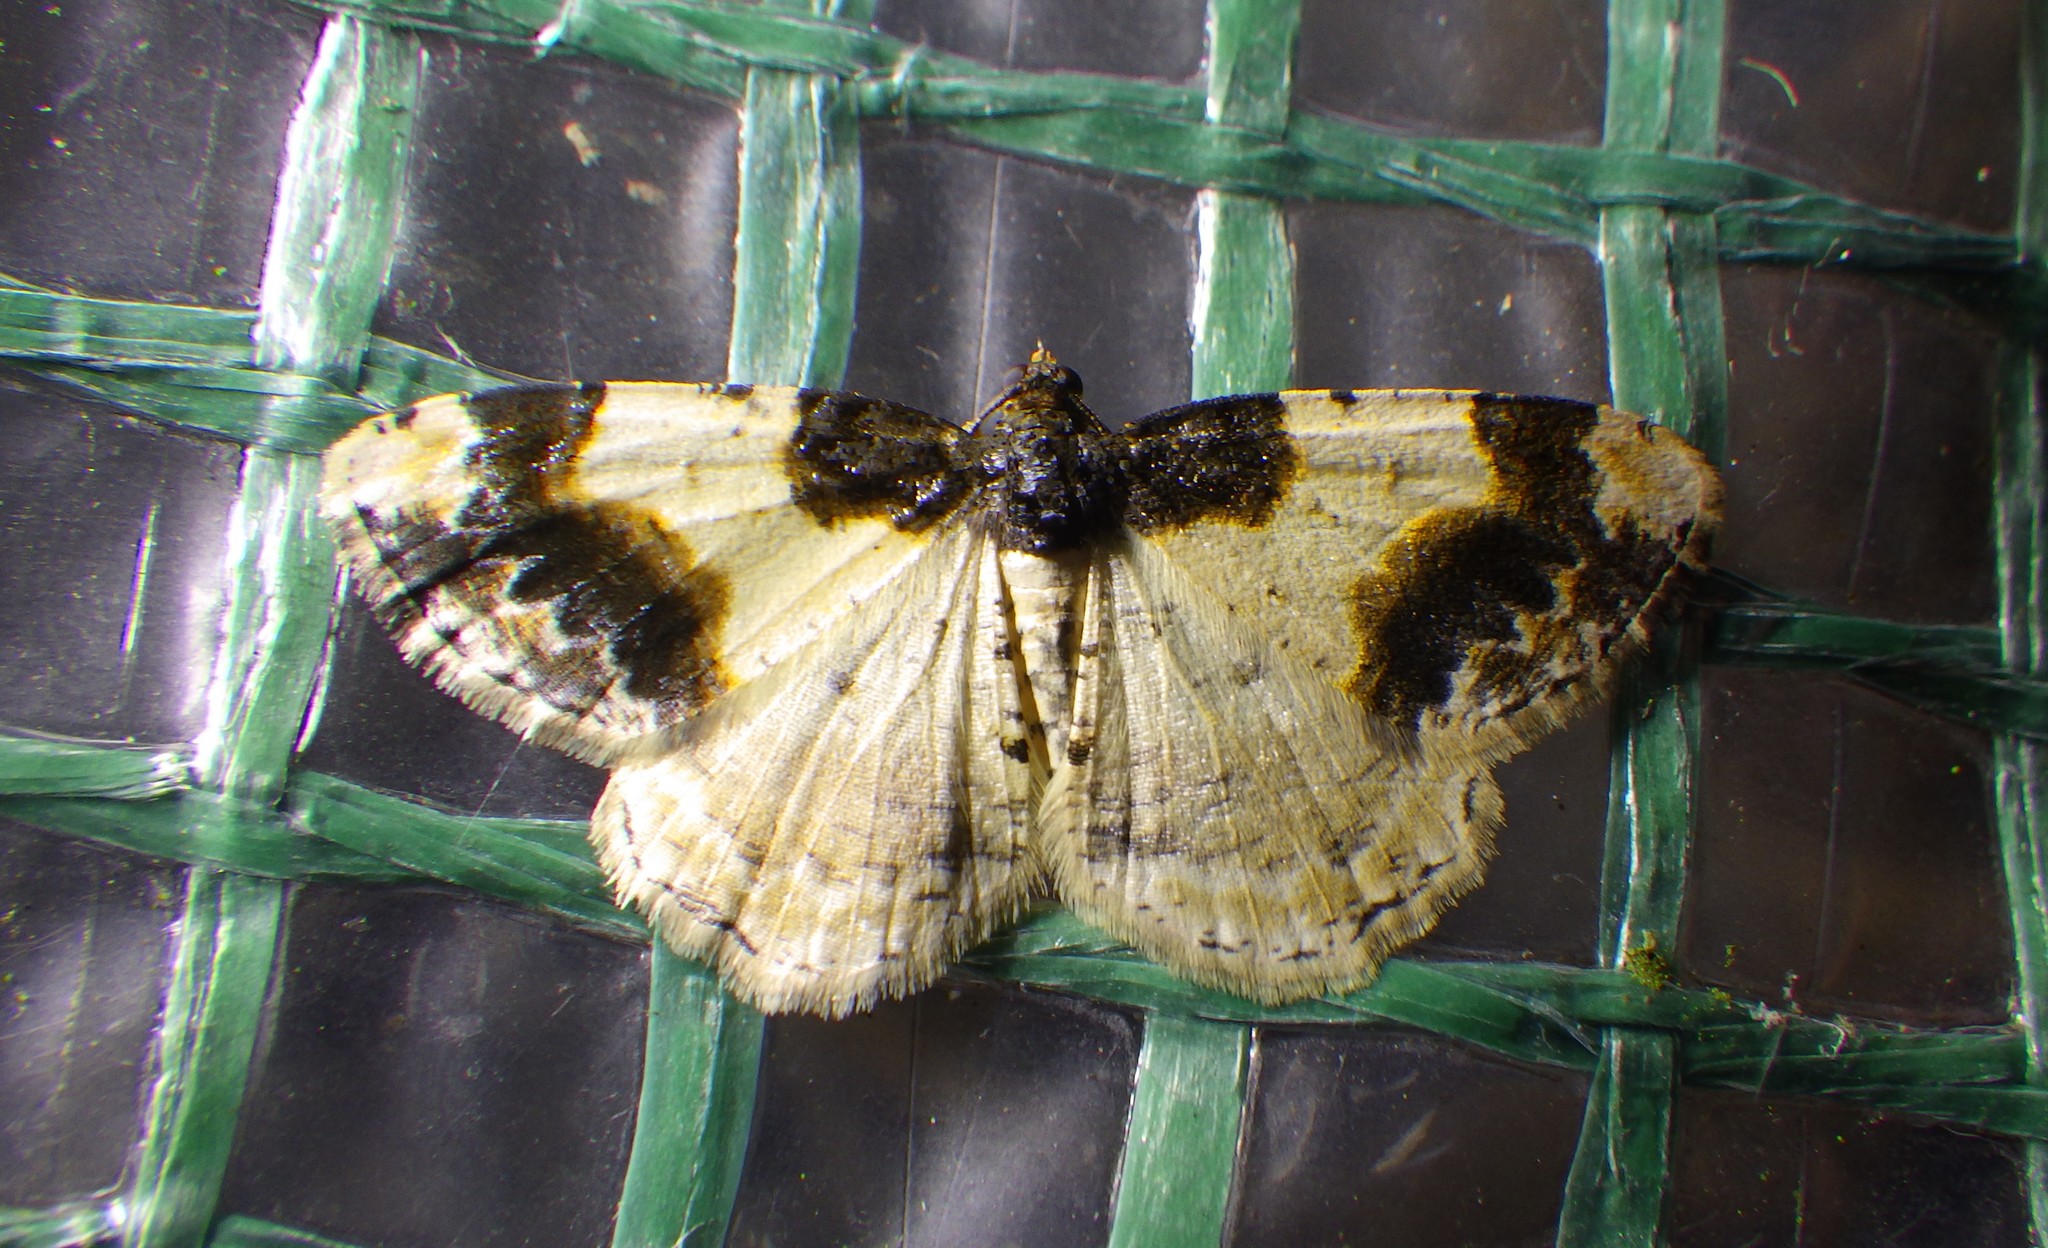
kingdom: Animalia
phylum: Arthropoda
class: Insecta
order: Lepidoptera
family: Geometridae
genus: Ligdia
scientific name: Ligdia adustata
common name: Scorched carpet
